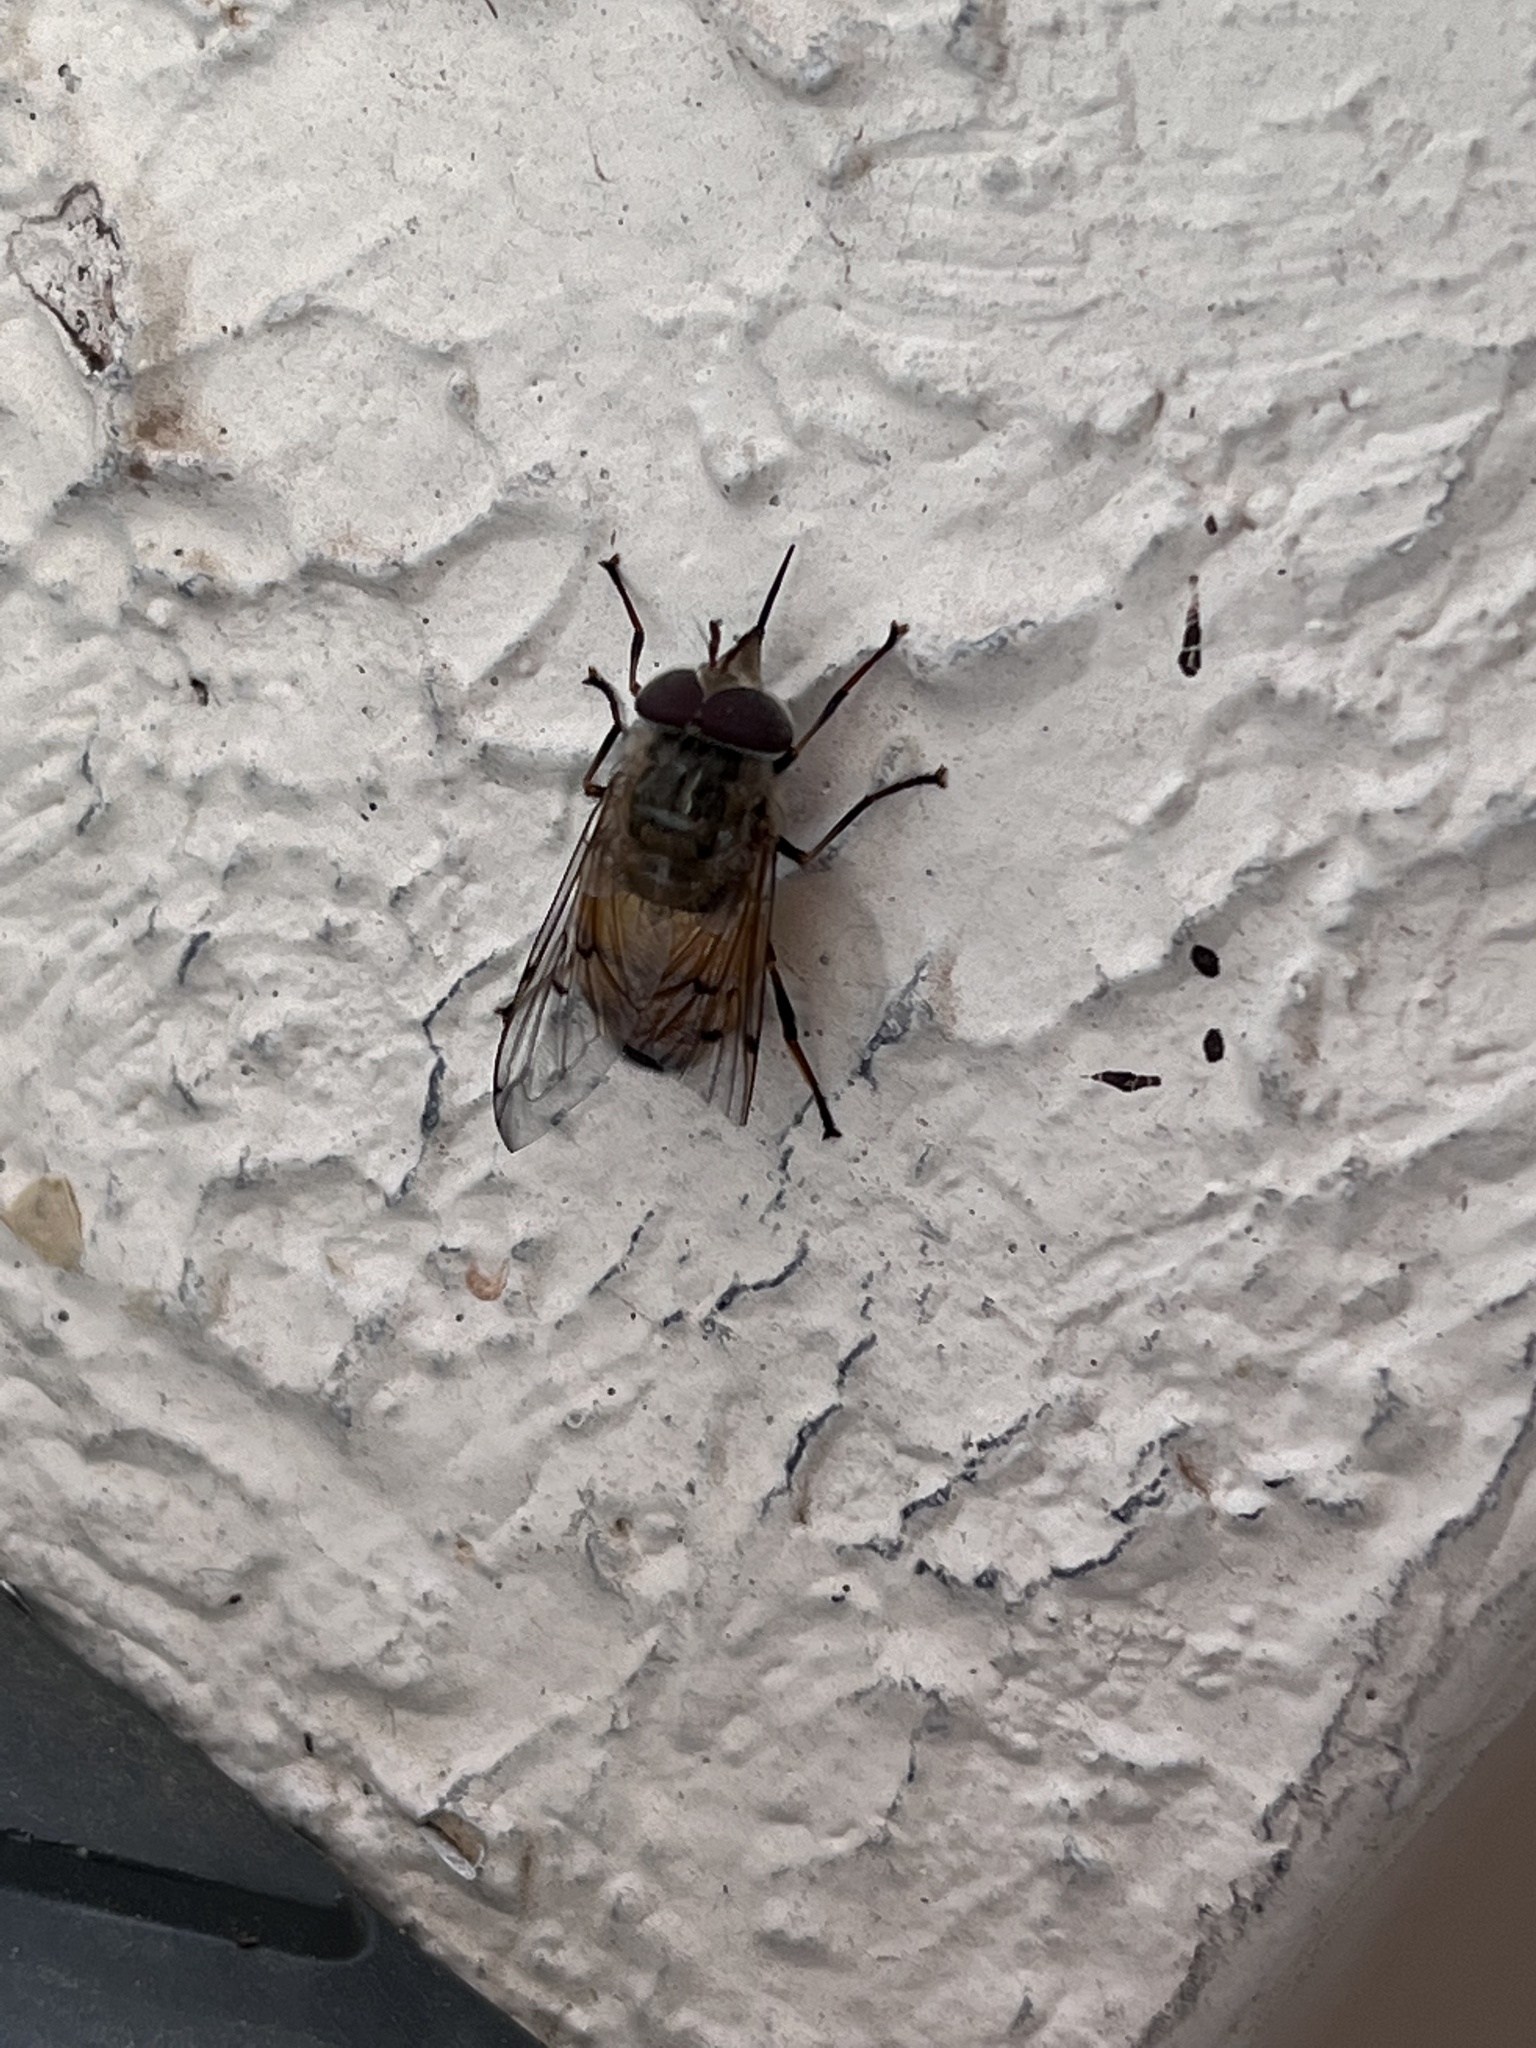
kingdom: Animalia
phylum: Arthropoda
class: Insecta
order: Diptera
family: Syrphidae
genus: Copestylum
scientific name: Copestylum haagii
